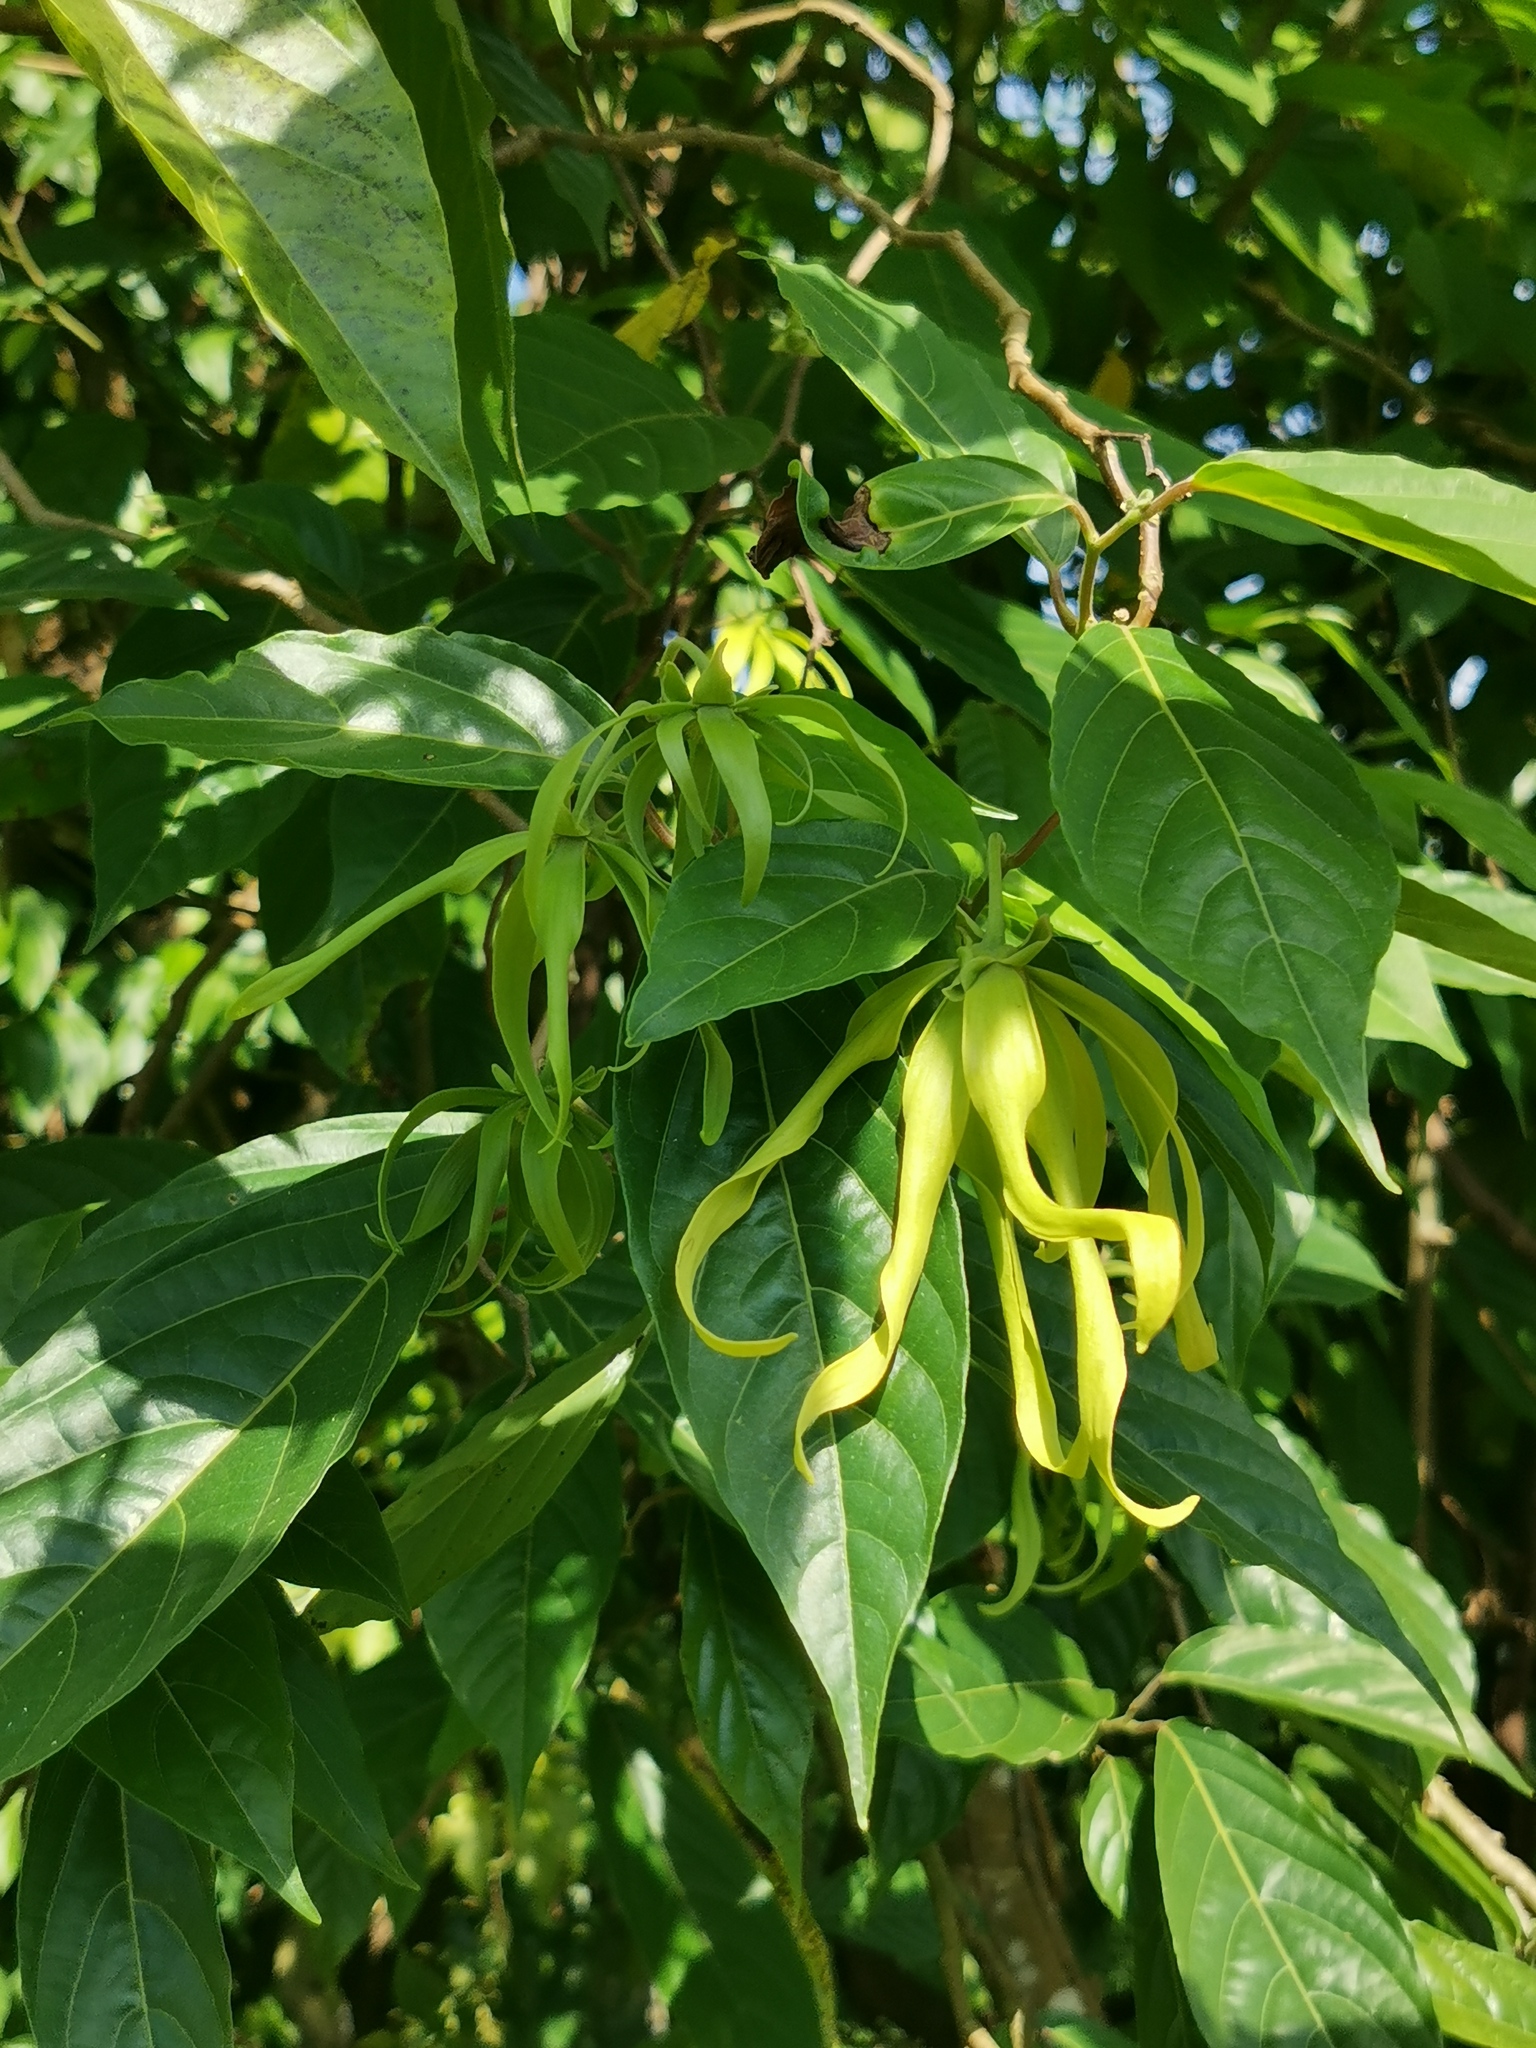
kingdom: Plantae
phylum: Tracheophyta
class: Magnoliopsida
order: Magnoliales
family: Annonaceae
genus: Cananga
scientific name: Cananga odorata
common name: Cananga tree
